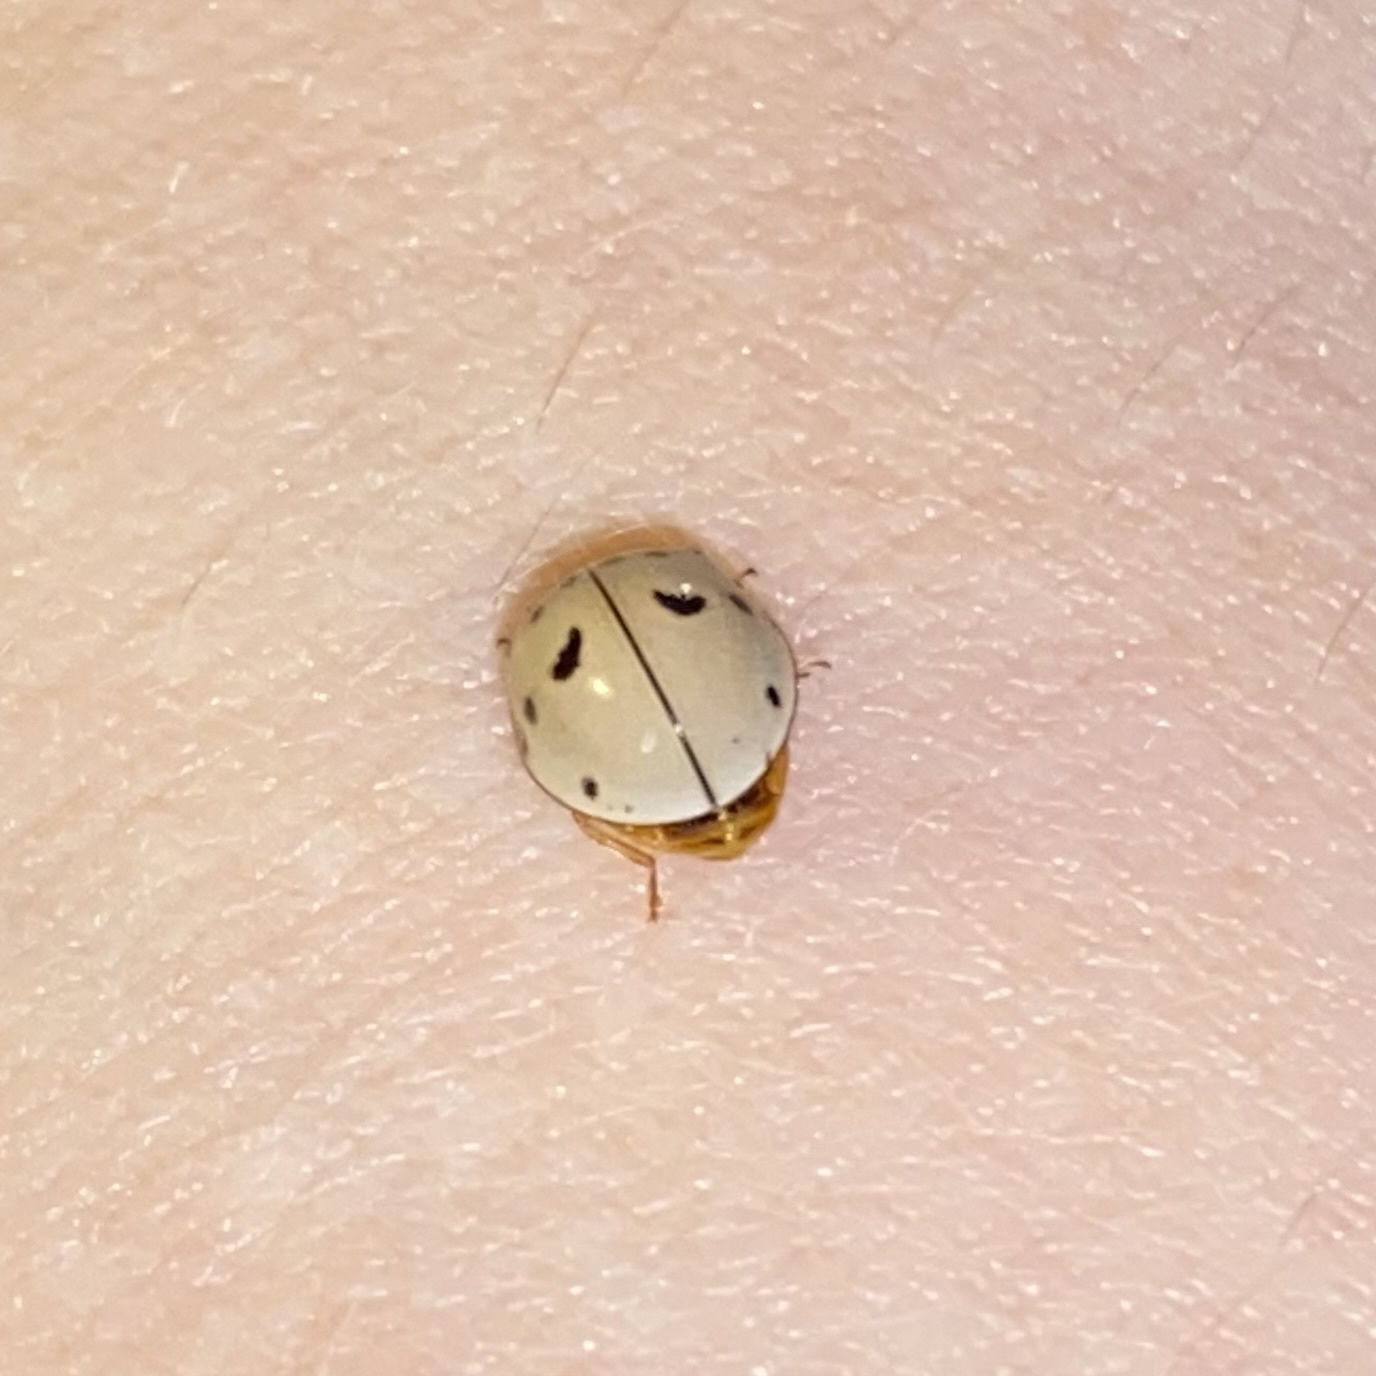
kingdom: Animalia
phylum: Arthropoda
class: Insecta
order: Coleoptera
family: Coccinellidae
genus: Olla
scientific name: Olla v-nigrum
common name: Ashy gray lady beetle
